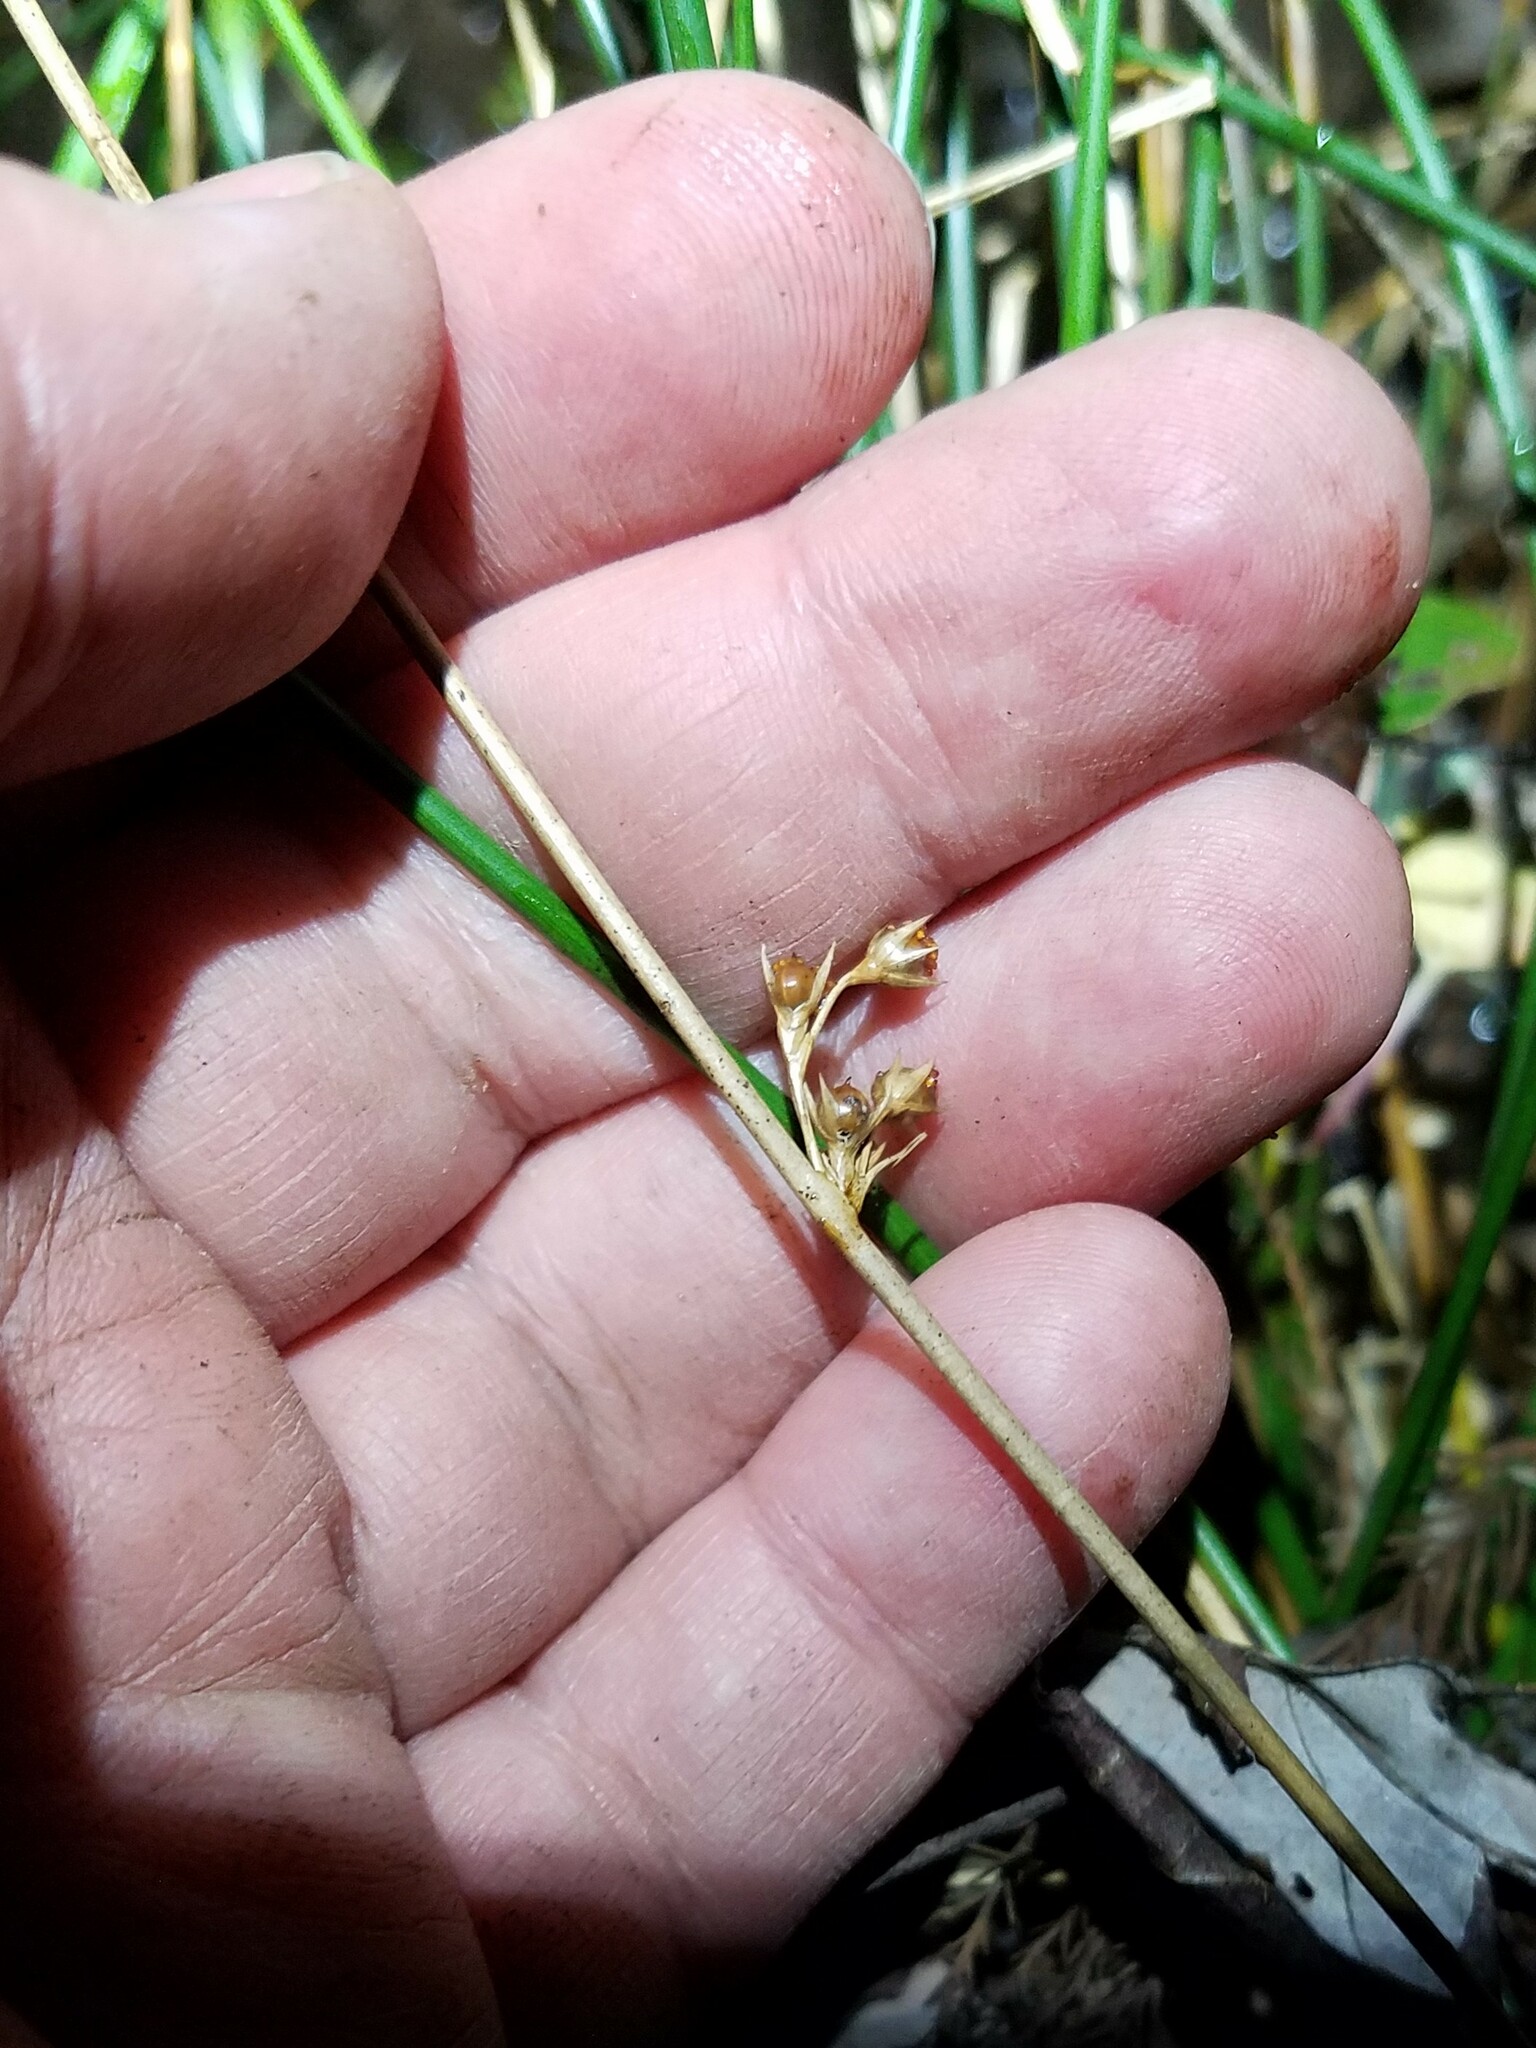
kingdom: Plantae
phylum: Tracheophyta
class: Liliopsida
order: Poales
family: Juncaceae
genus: Juncus
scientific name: Juncus coriaceus
